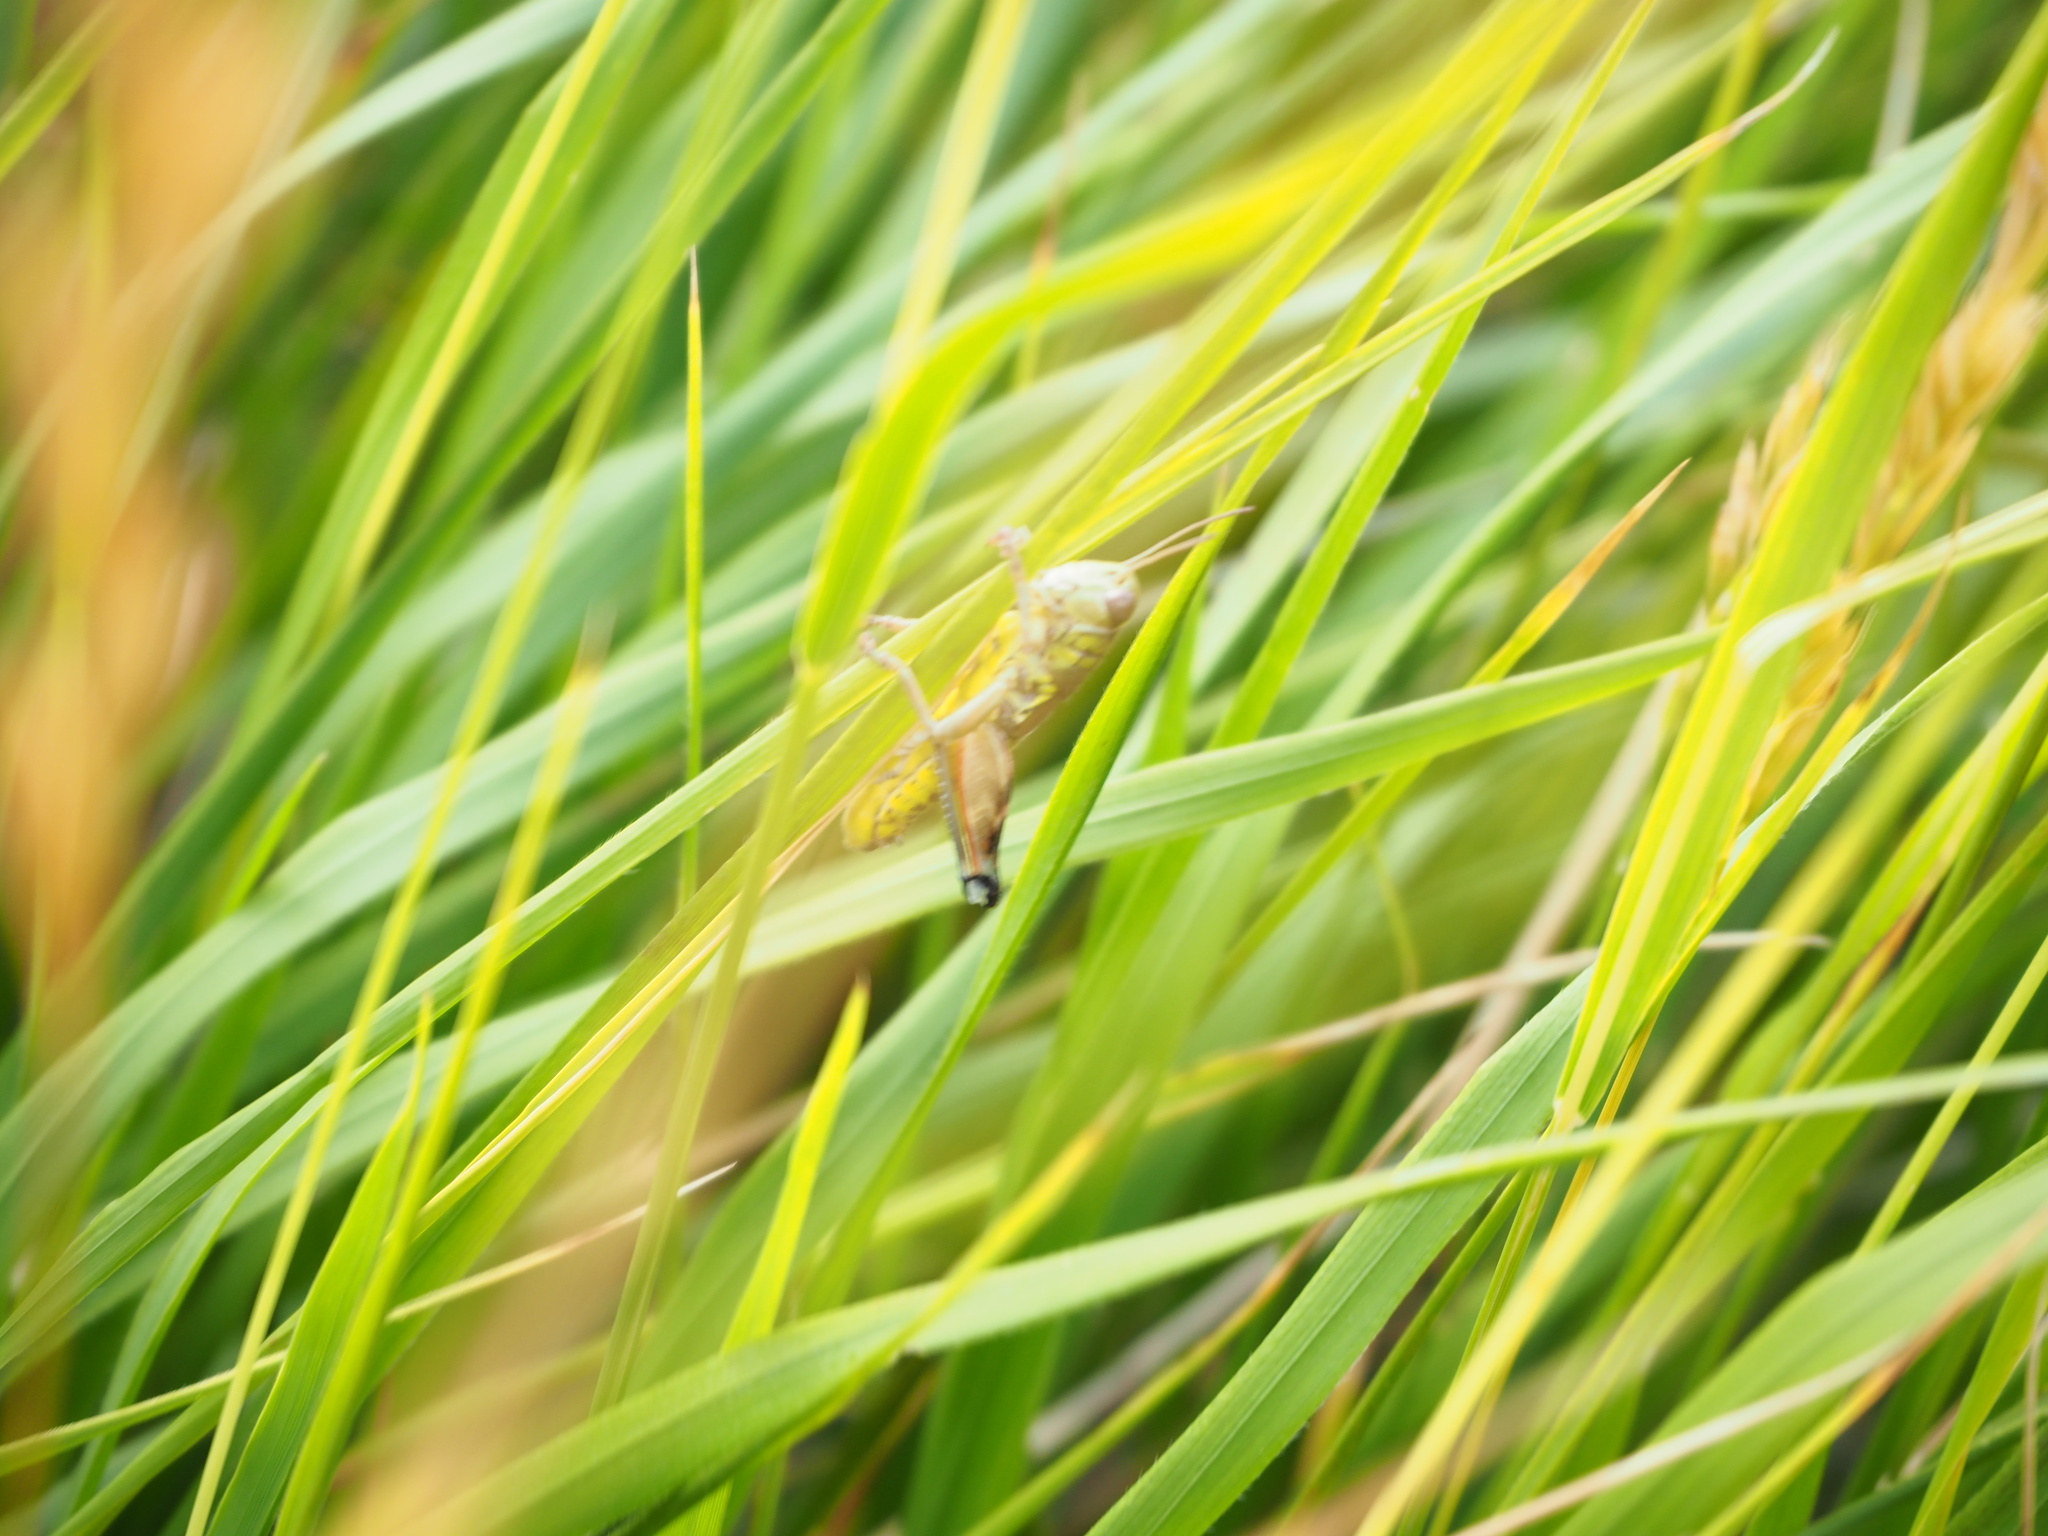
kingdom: Animalia
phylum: Arthropoda
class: Insecta
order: Orthoptera
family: Acrididae
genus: Podisma
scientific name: Podisma emiliae
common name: Emilia mountain grasshopper
